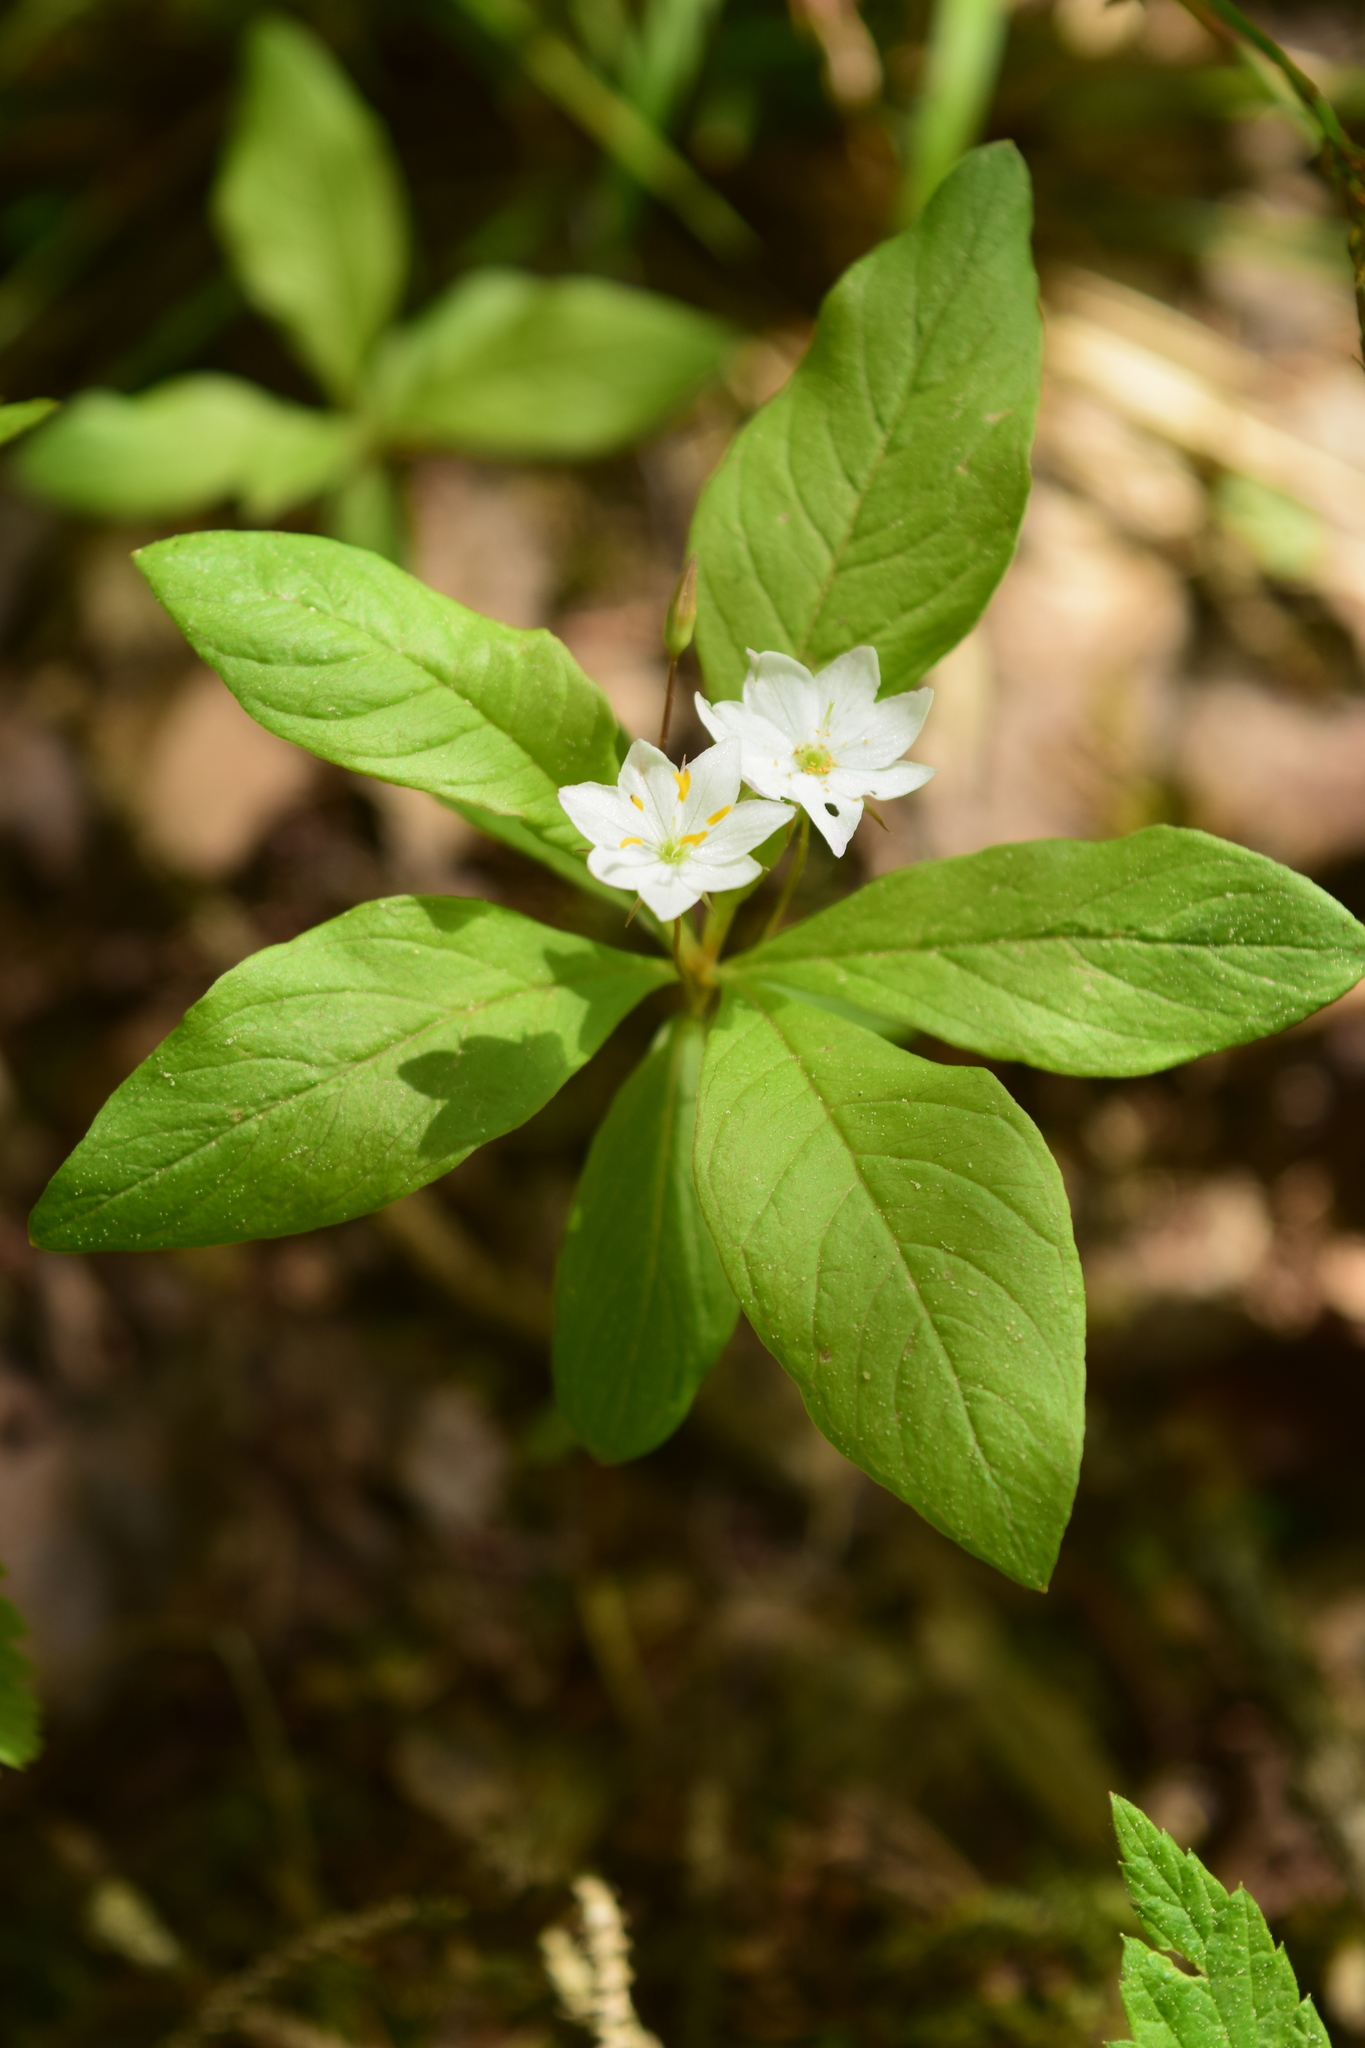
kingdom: Plantae
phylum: Tracheophyta
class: Magnoliopsida
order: Ericales
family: Primulaceae
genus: Lysimachia
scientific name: Lysimachia europaea
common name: Arctic starflower
